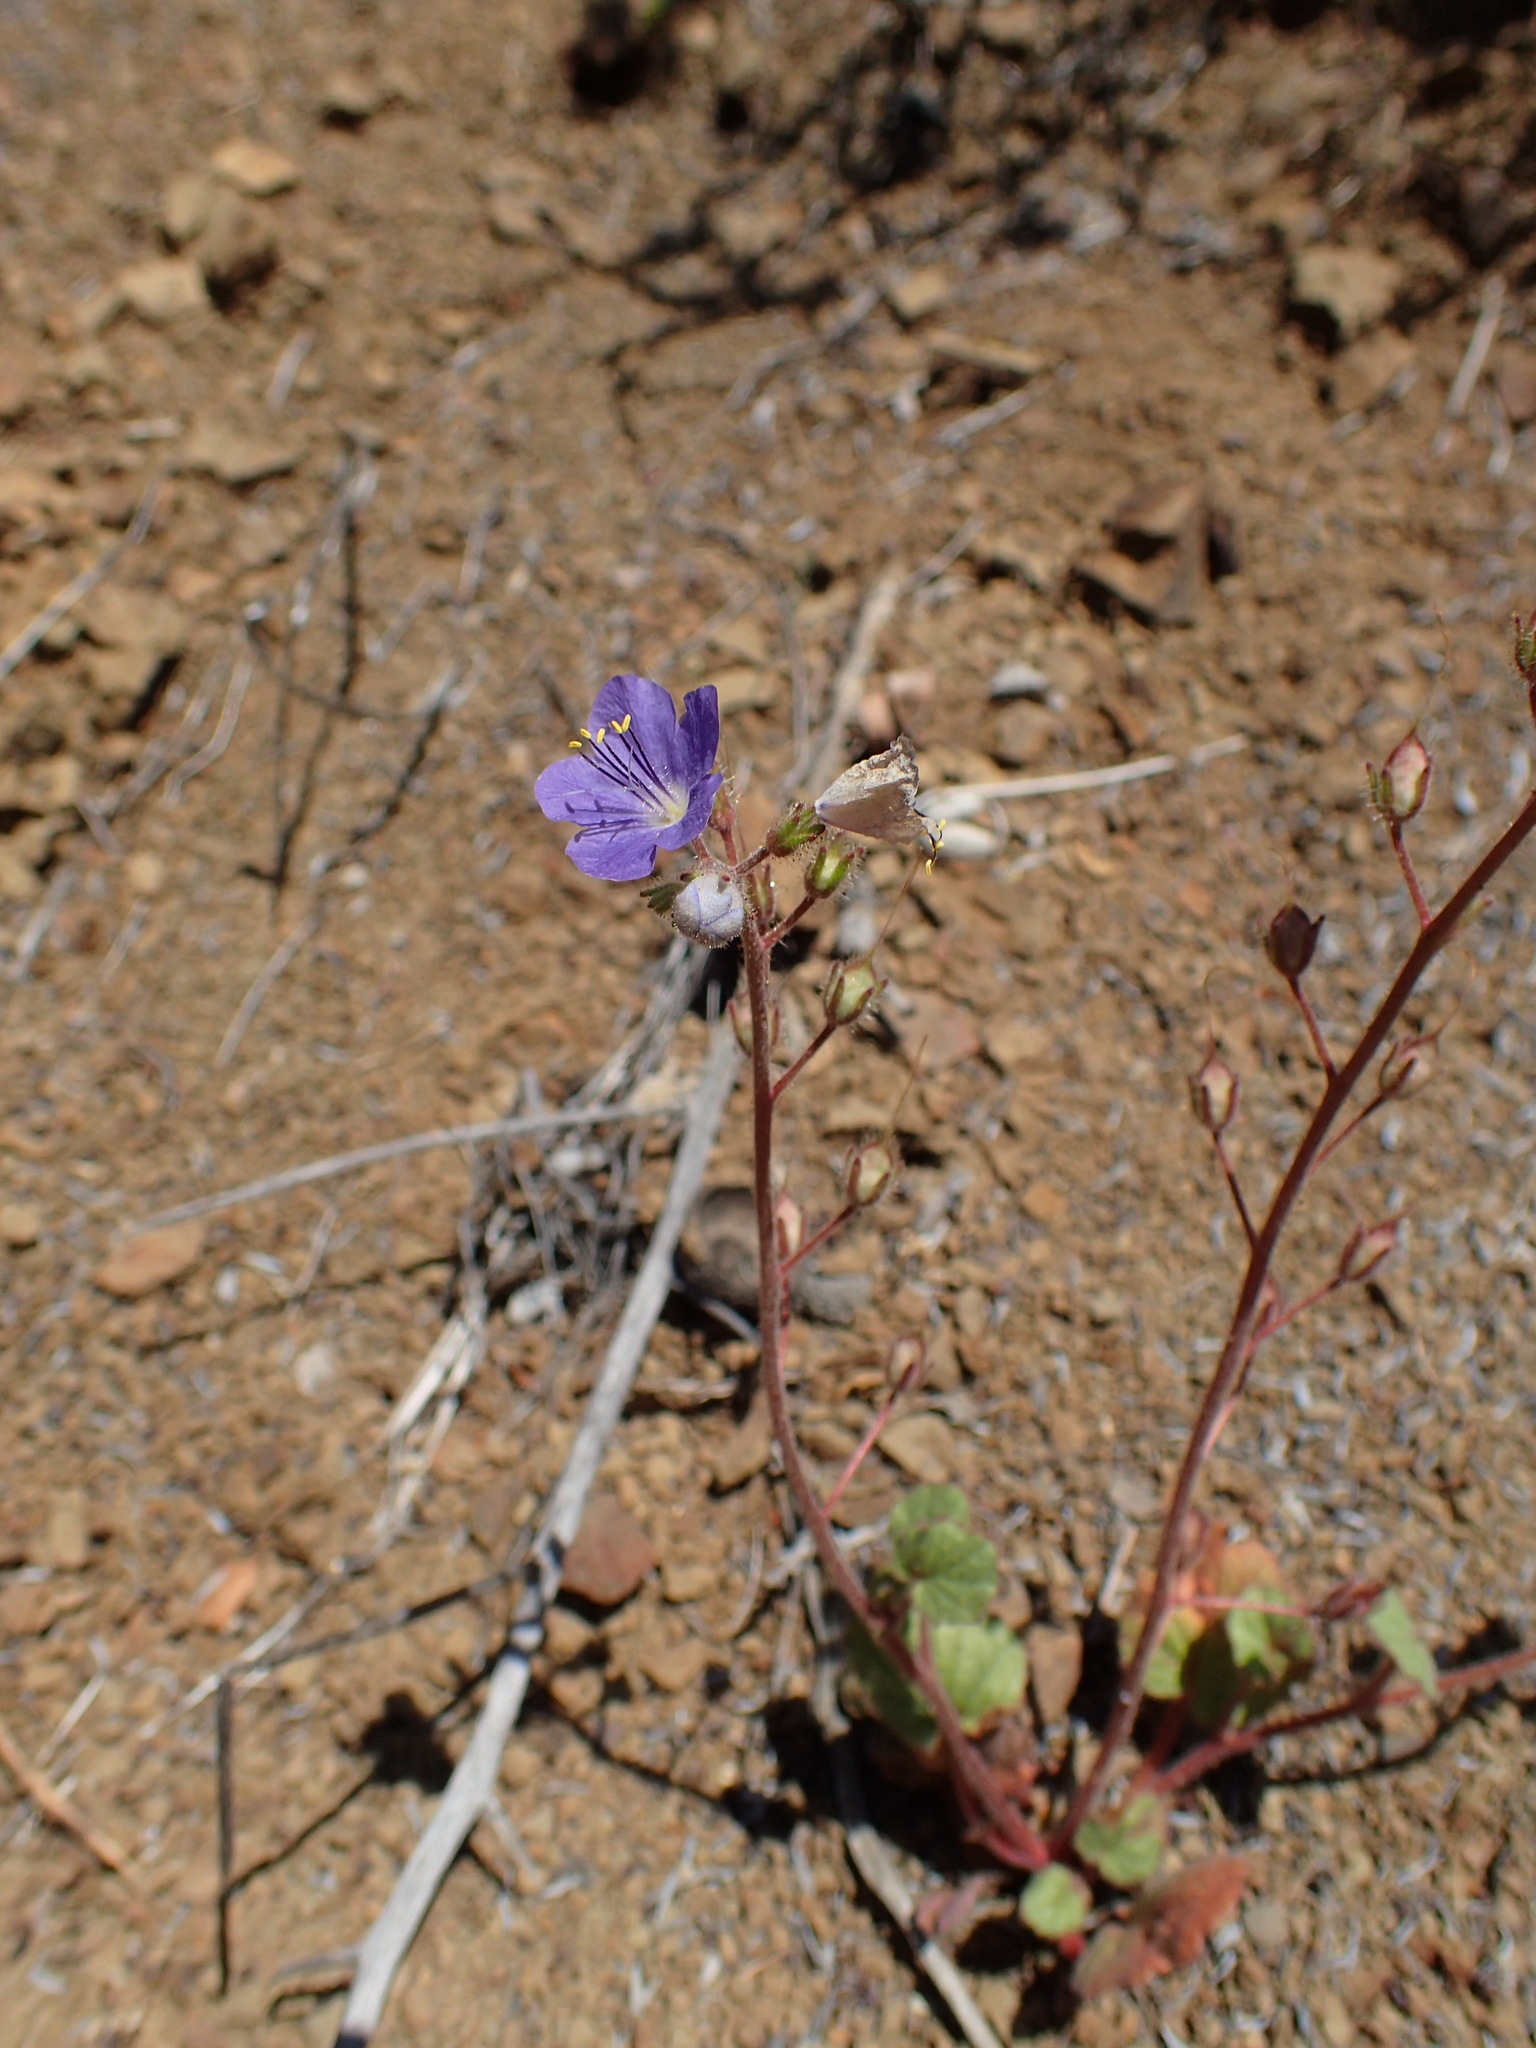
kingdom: Plantae
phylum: Tracheophyta
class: Magnoliopsida
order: Boraginales
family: Hydrophyllaceae
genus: Phacelia
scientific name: Phacelia longipes
